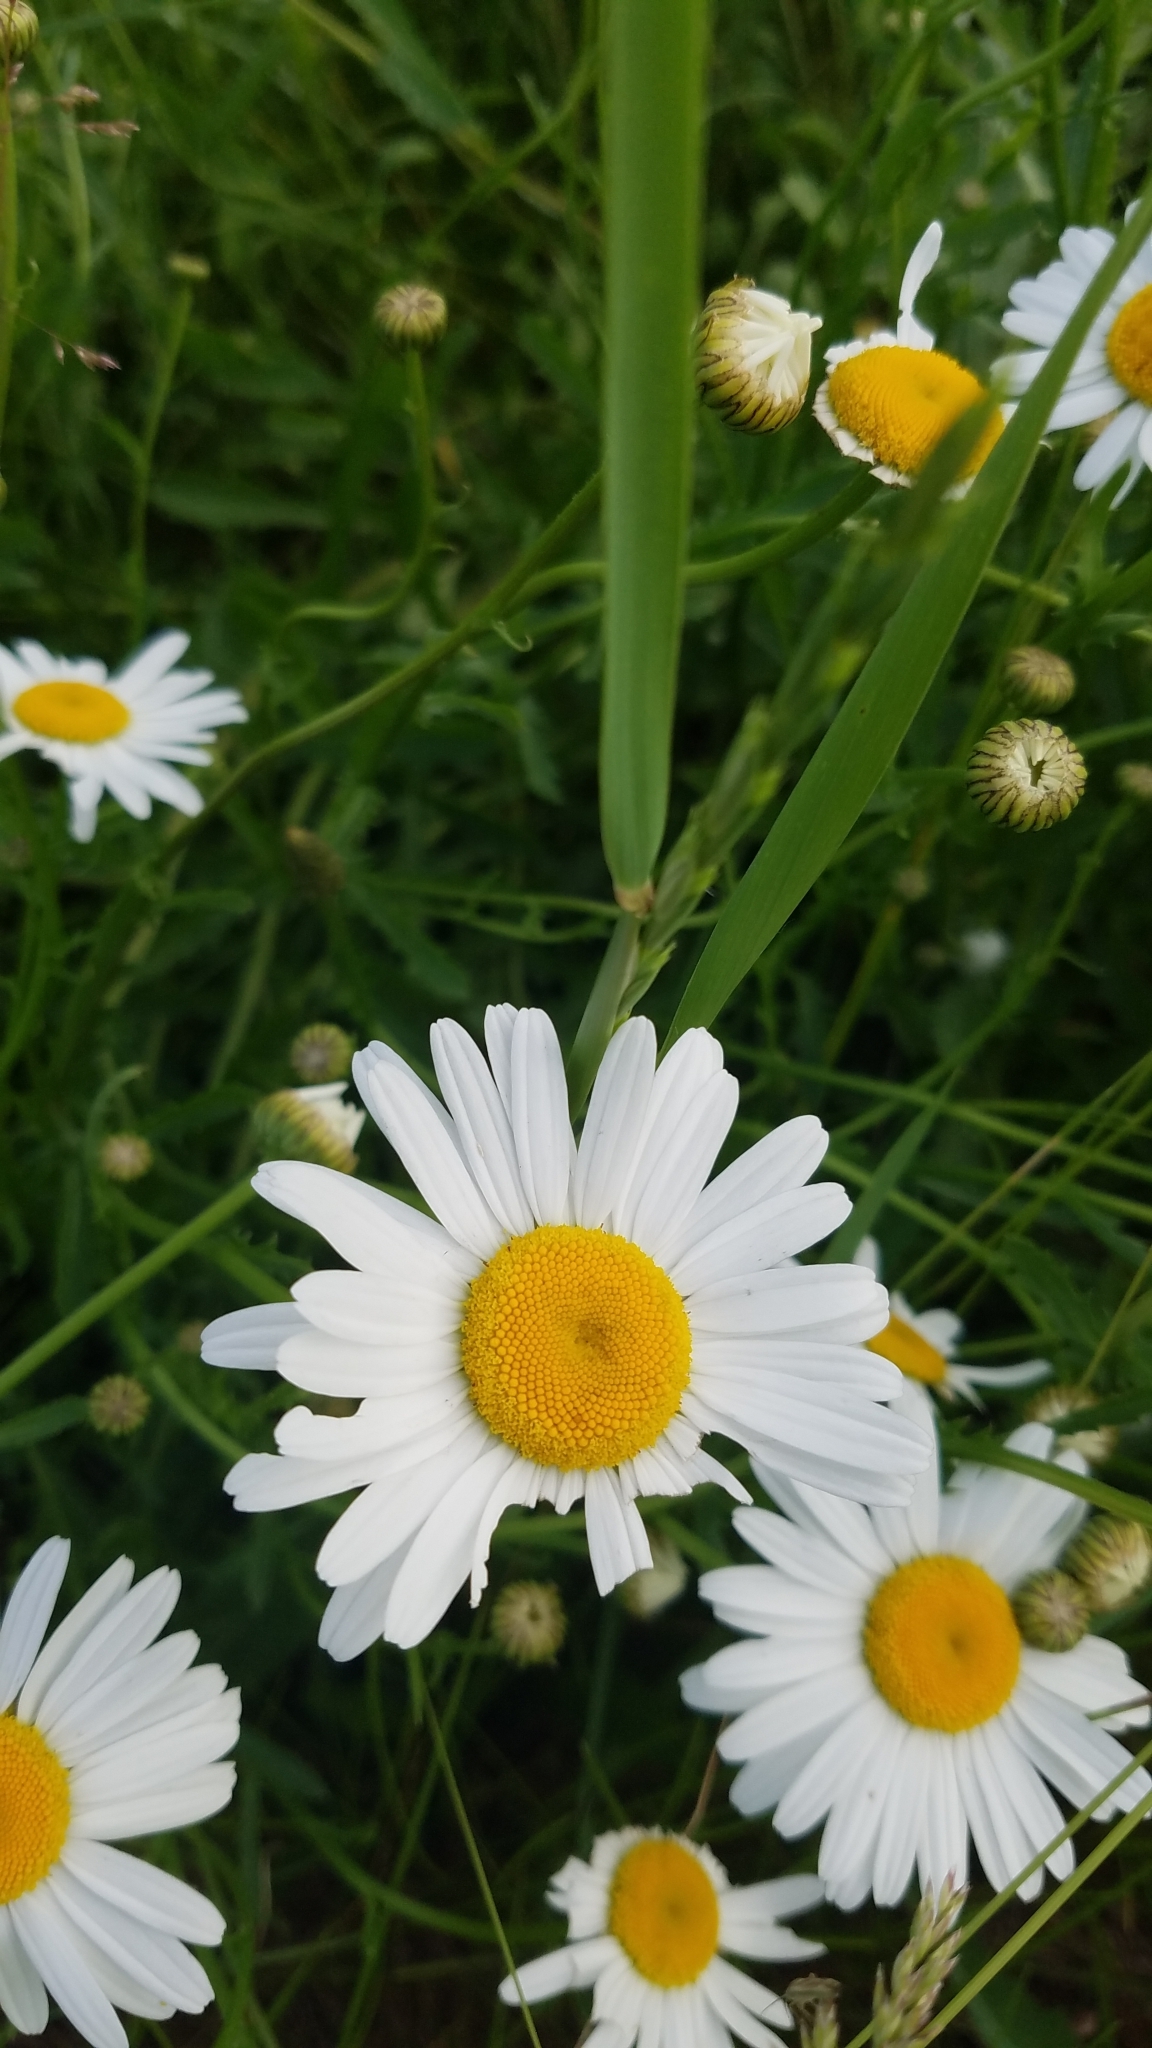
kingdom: Plantae
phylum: Tracheophyta
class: Magnoliopsida
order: Asterales
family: Asteraceae
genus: Leucanthemum
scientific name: Leucanthemum vulgare
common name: Oxeye daisy
